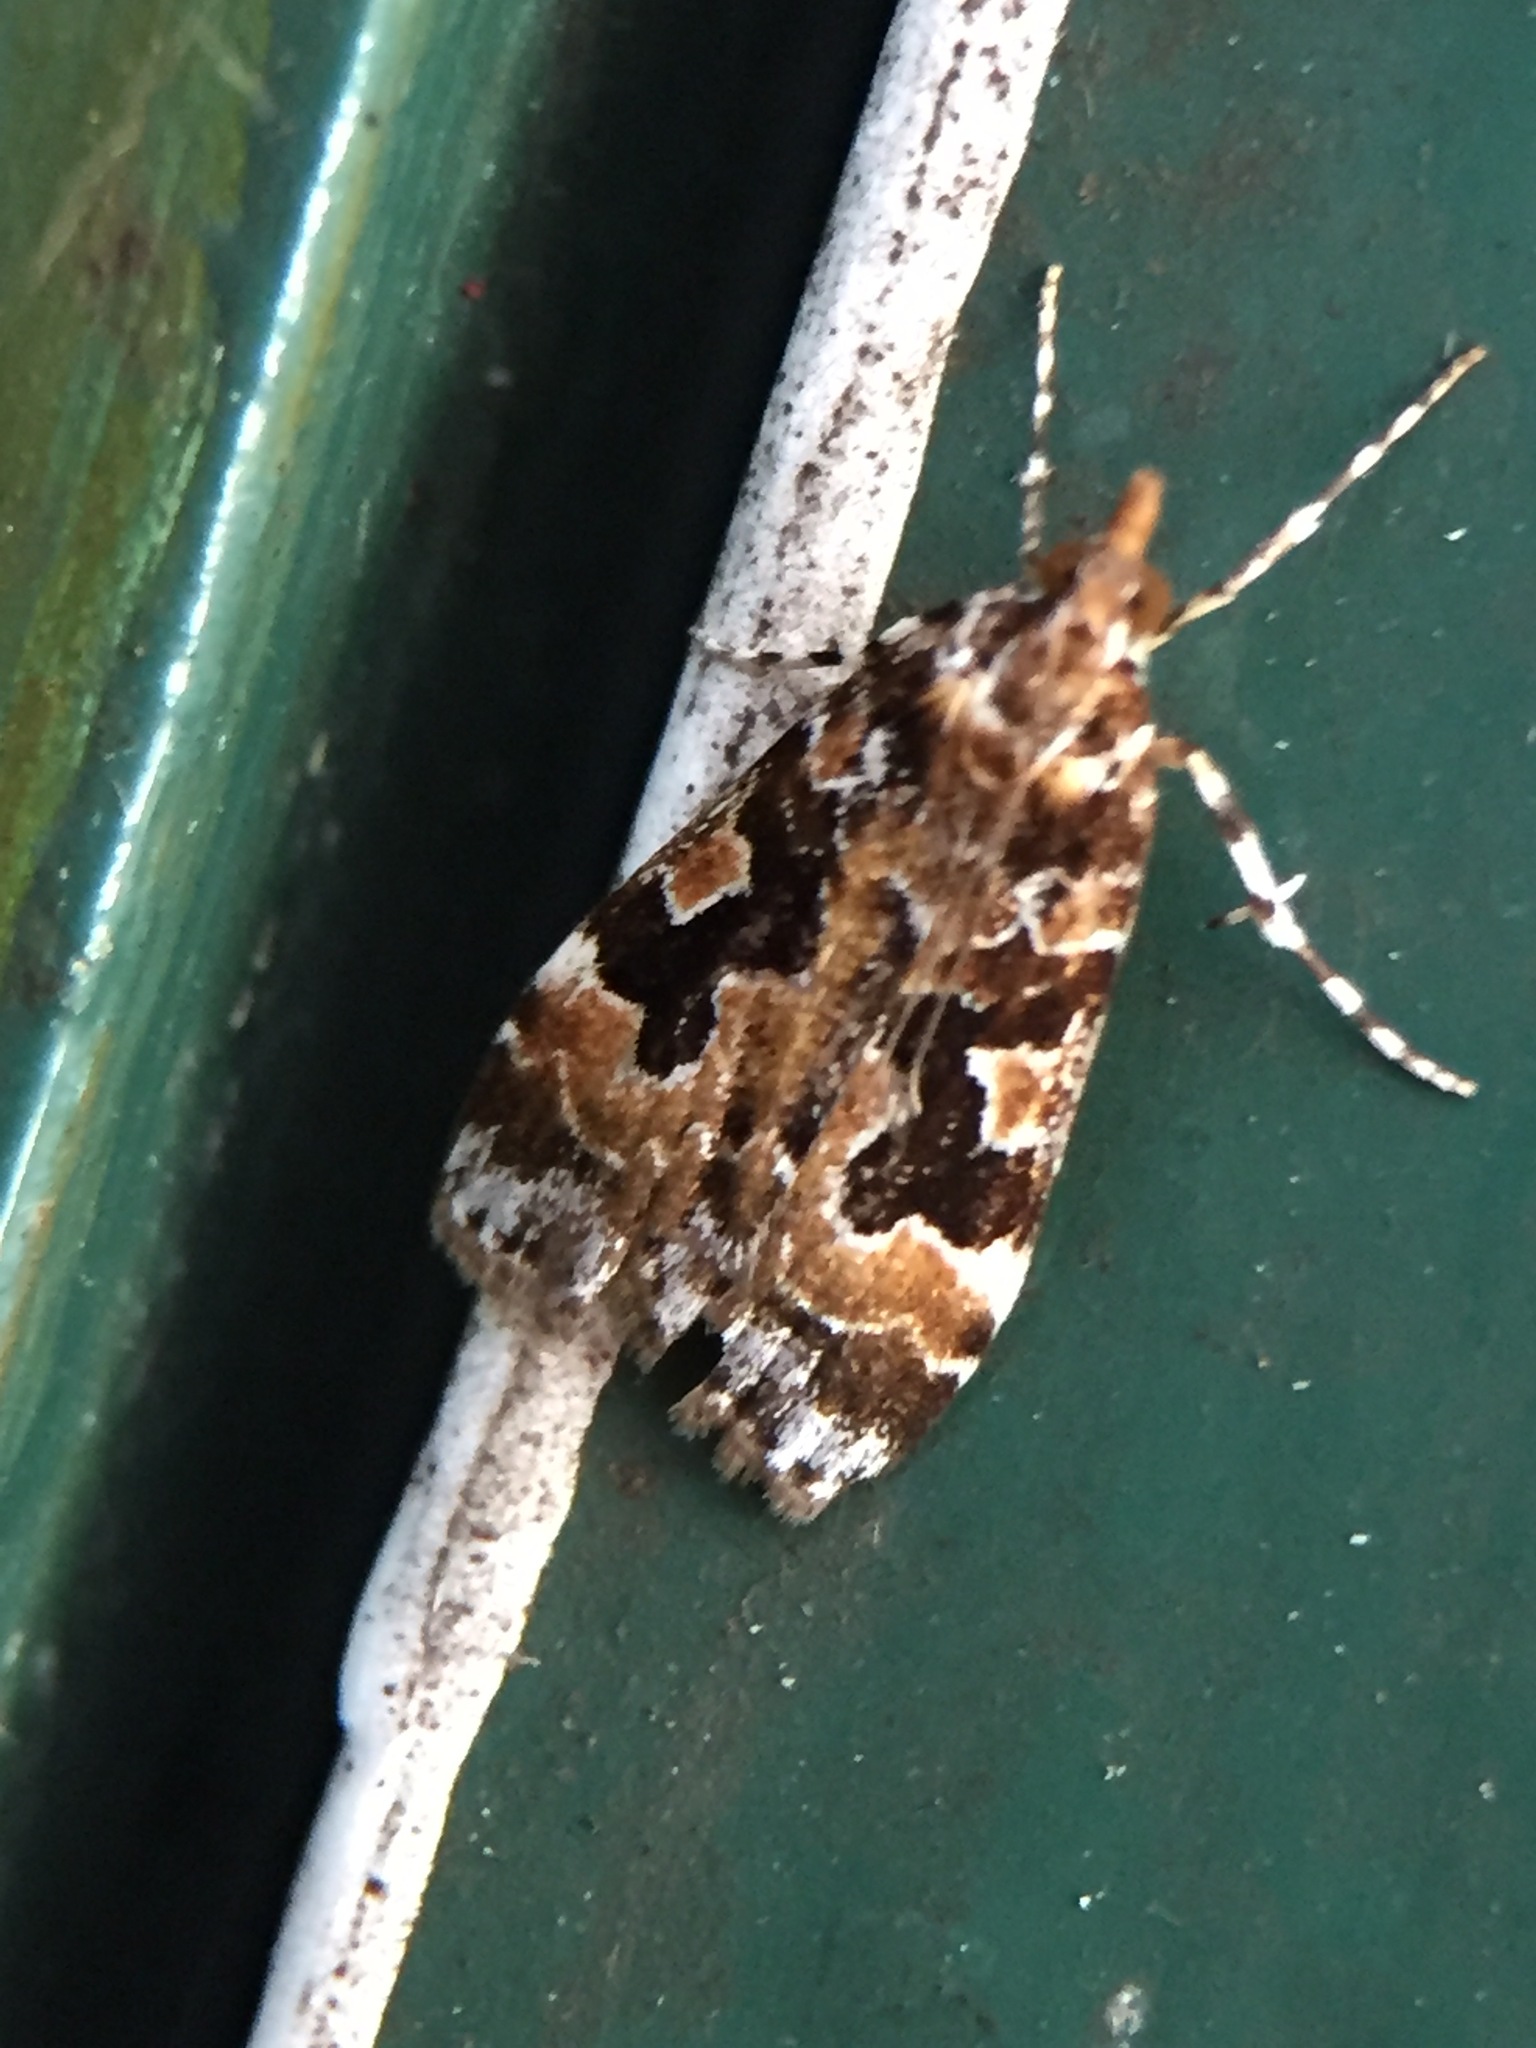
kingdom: Animalia
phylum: Arthropoda
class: Insecta
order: Lepidoptera
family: Crambidae
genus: Scoparia
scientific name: Scoparia ustimacula
